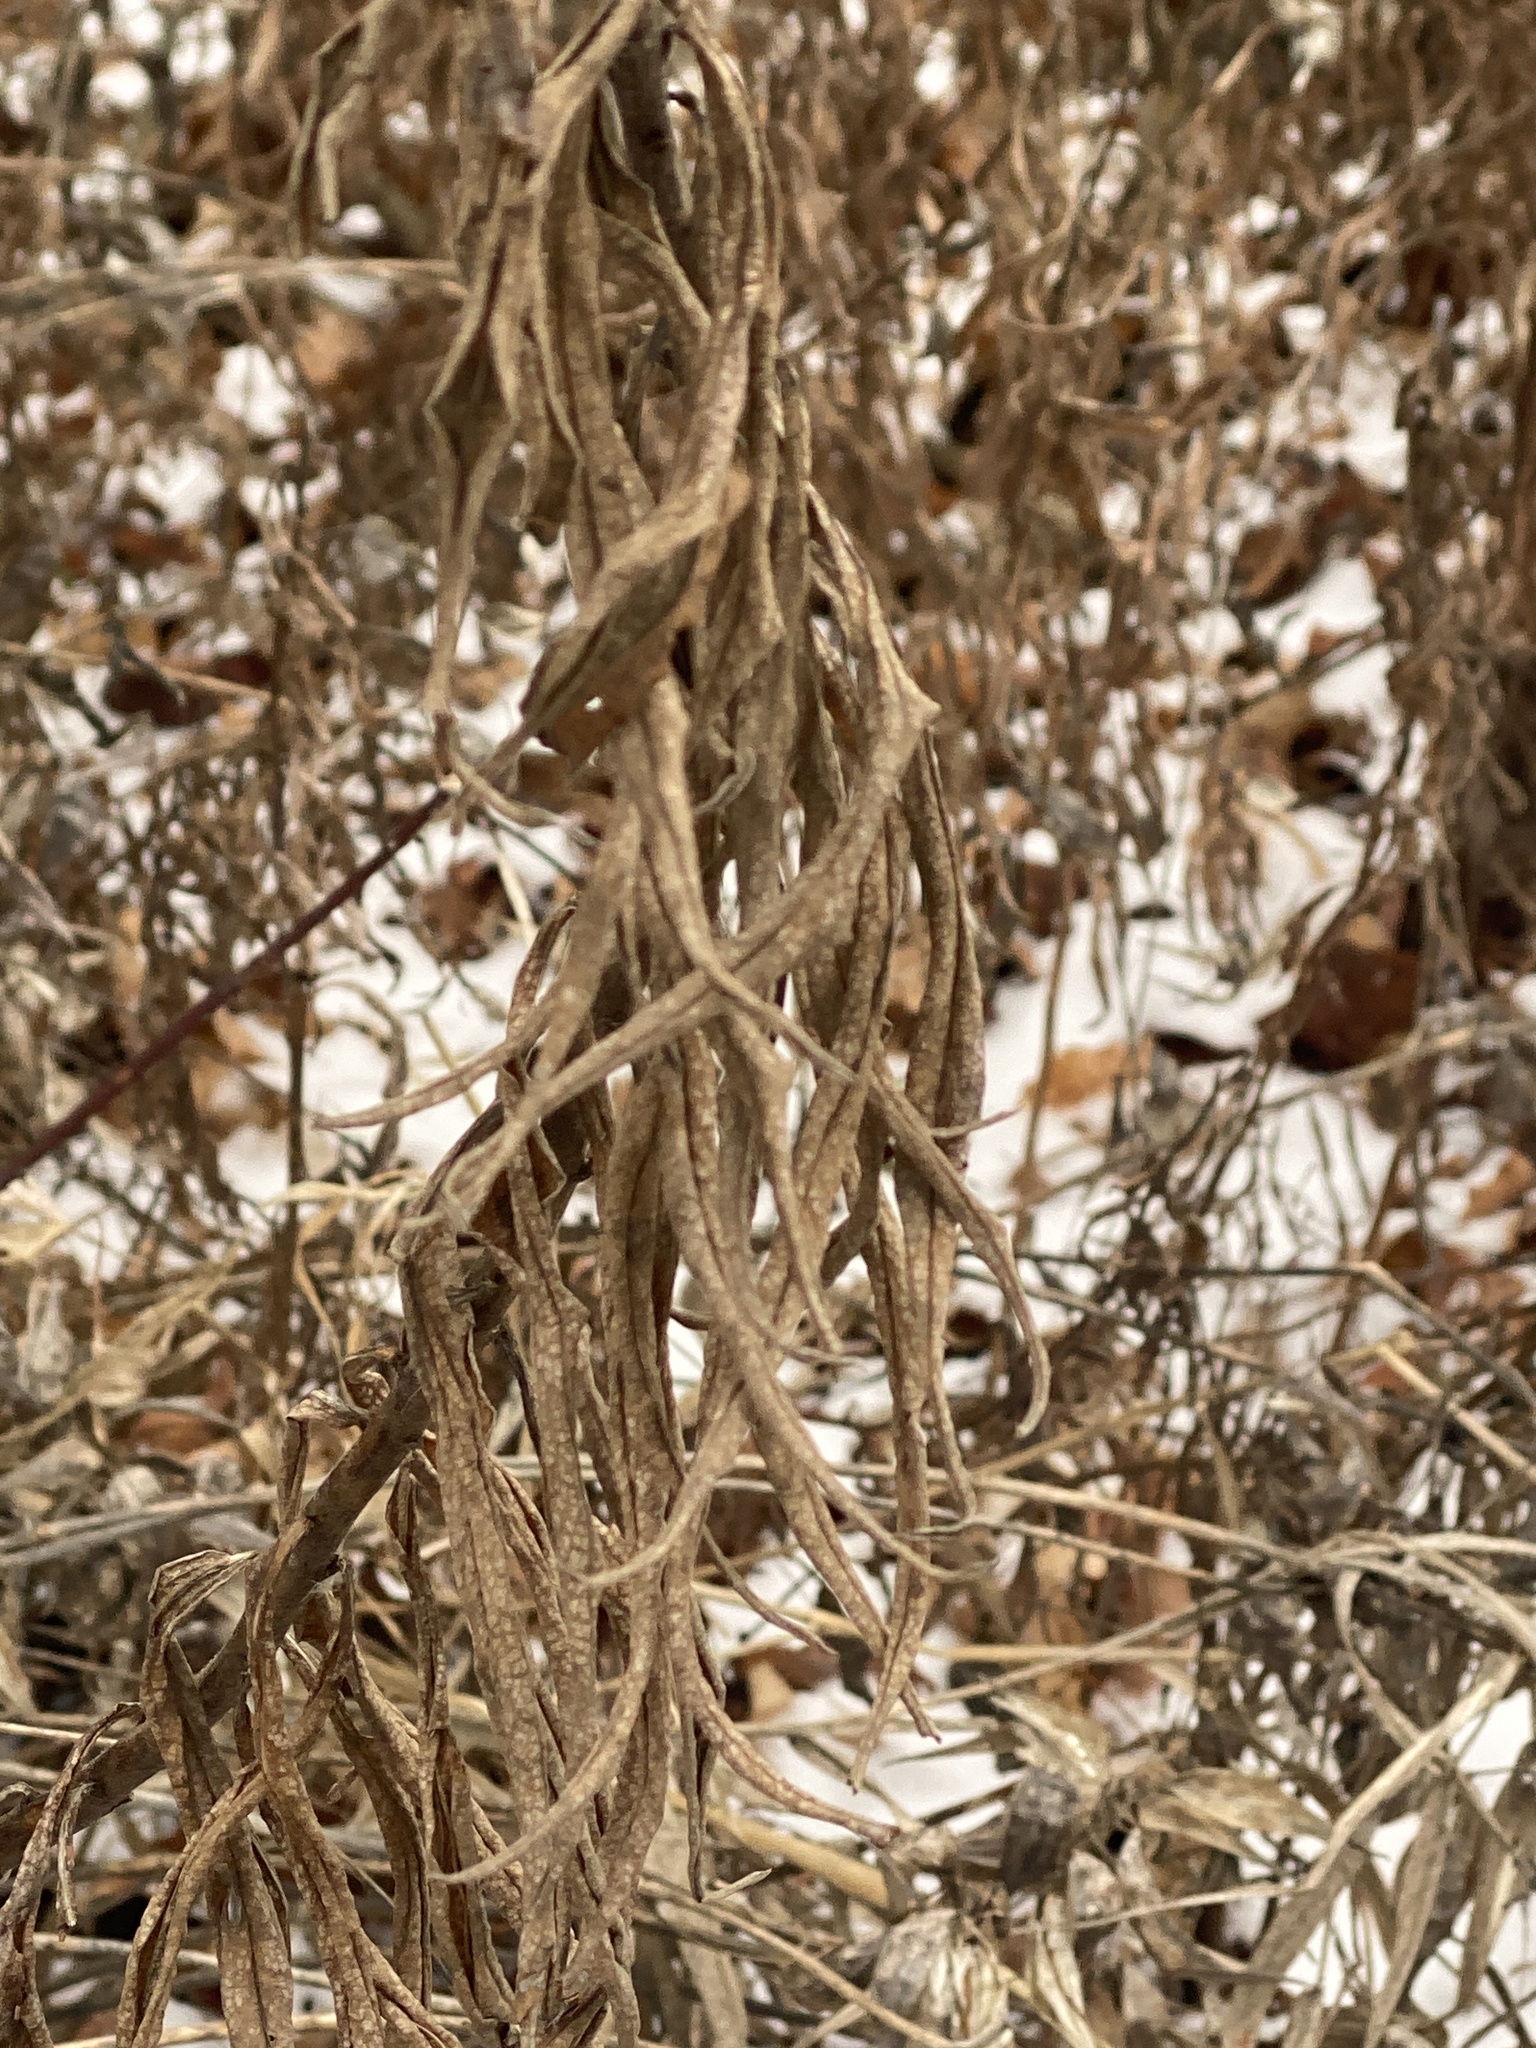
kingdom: Plantae
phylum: Tracheophyta
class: Magnoliopsida
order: Asterales
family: Asteraceae
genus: Solidago
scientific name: Solidago altissima
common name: Late goldenrod
